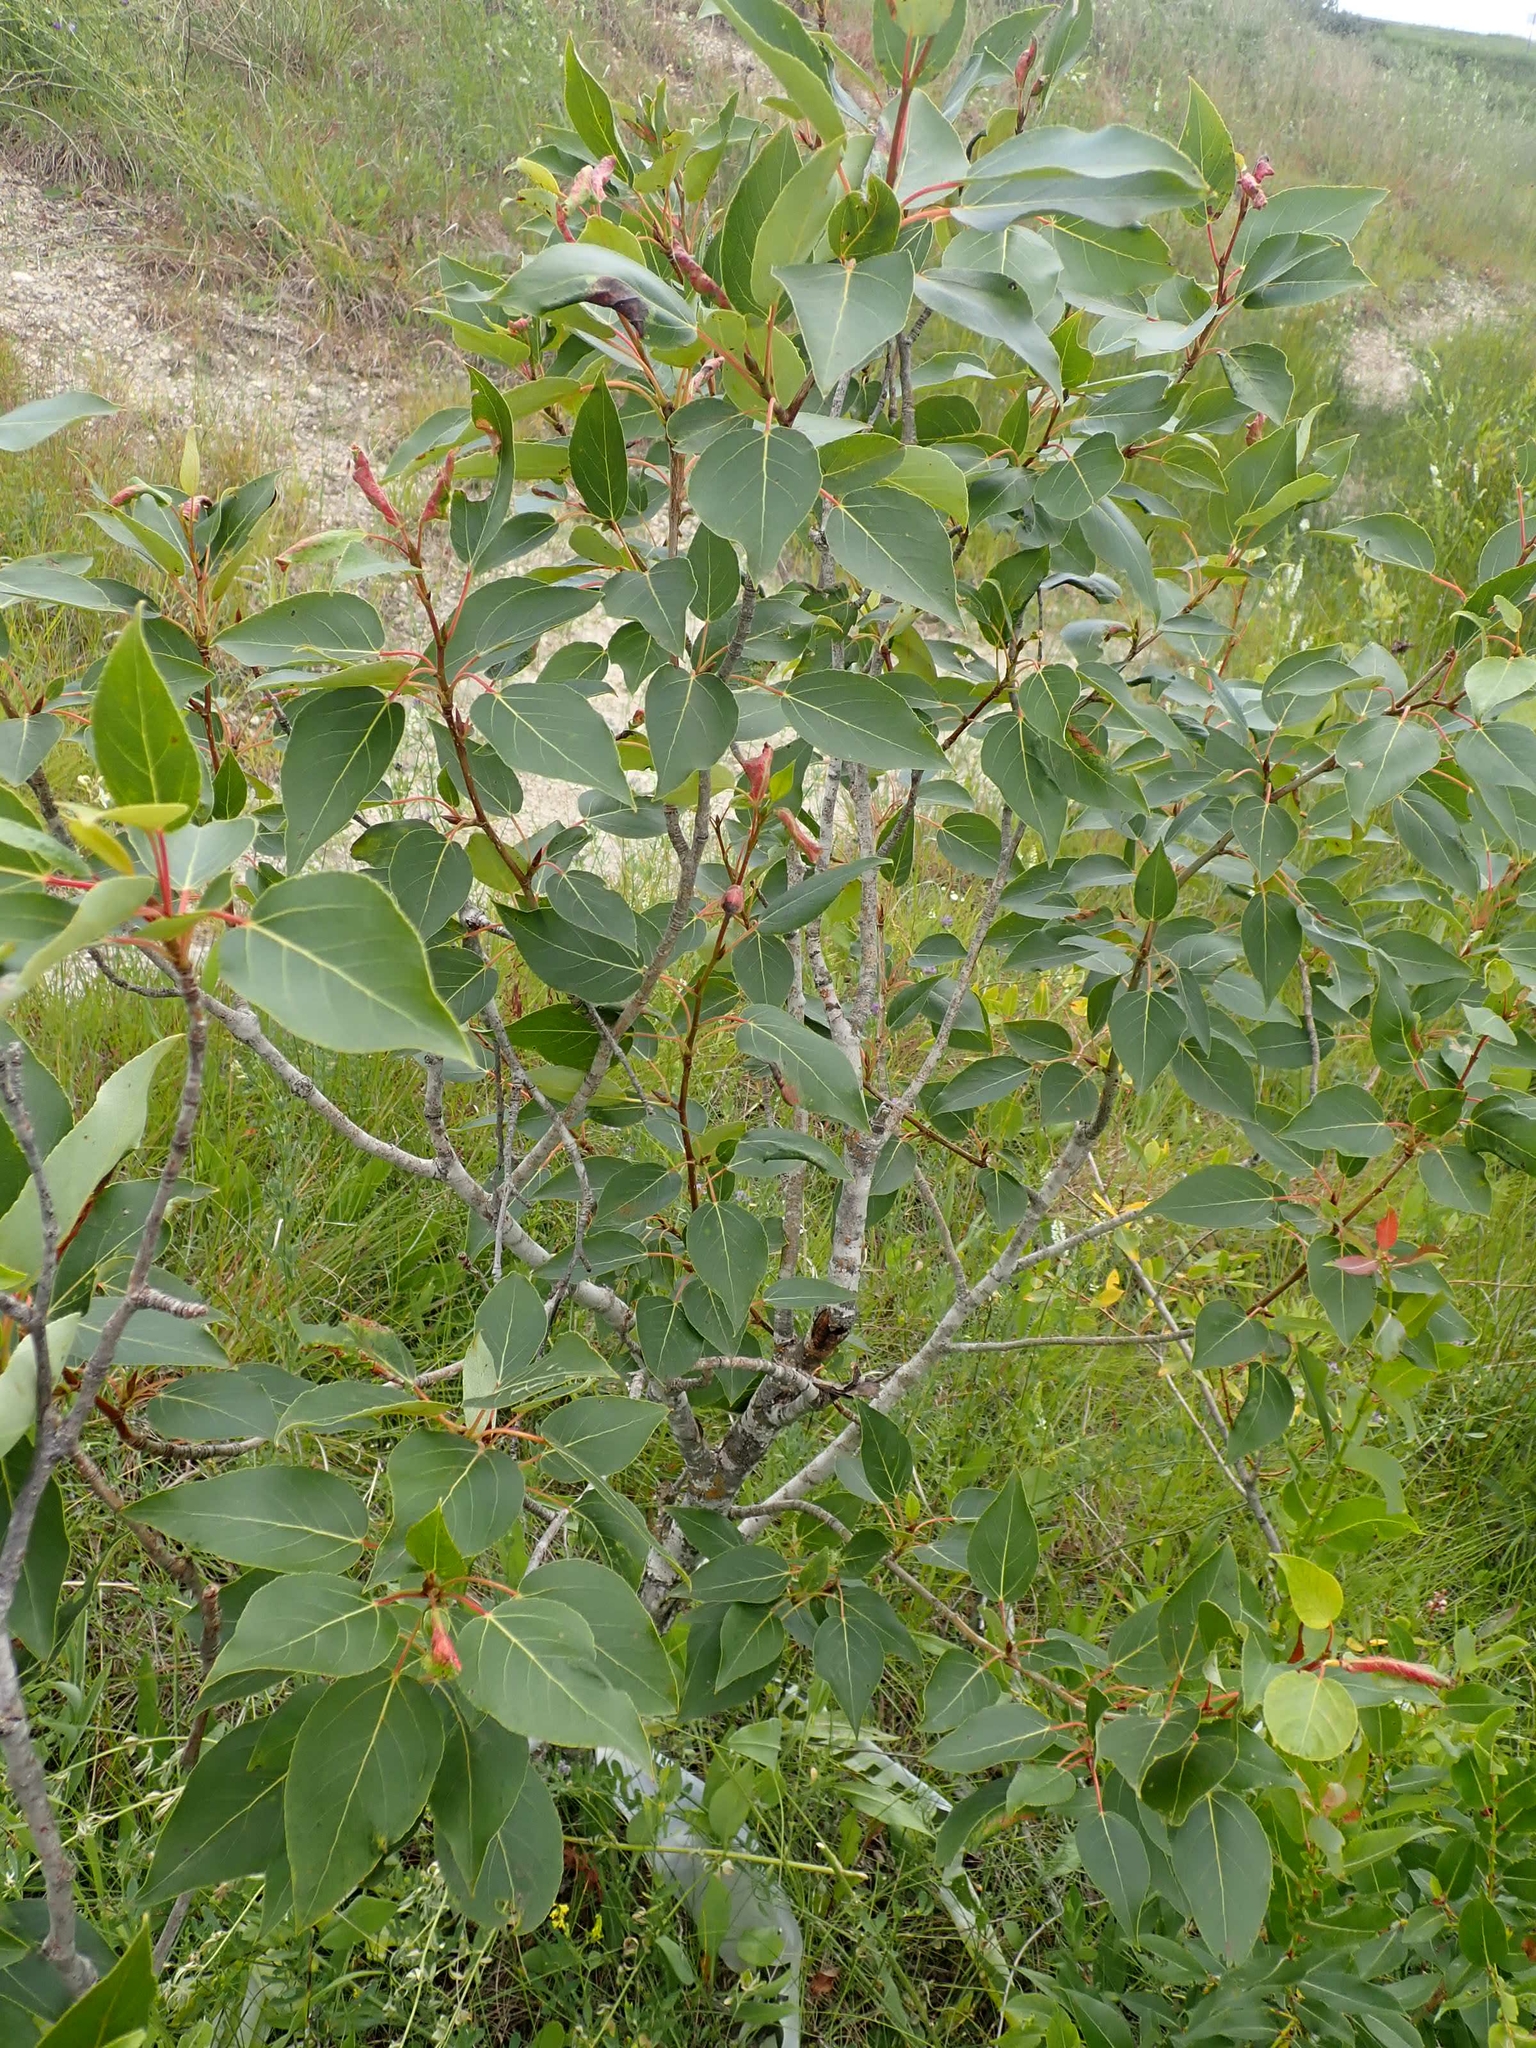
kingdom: Plantae
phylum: Tracheophyta
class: Magnoliopsida
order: Malpighiales
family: Salicaceae
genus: Populus
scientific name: Populus balsamifera
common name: Balsam poplar
